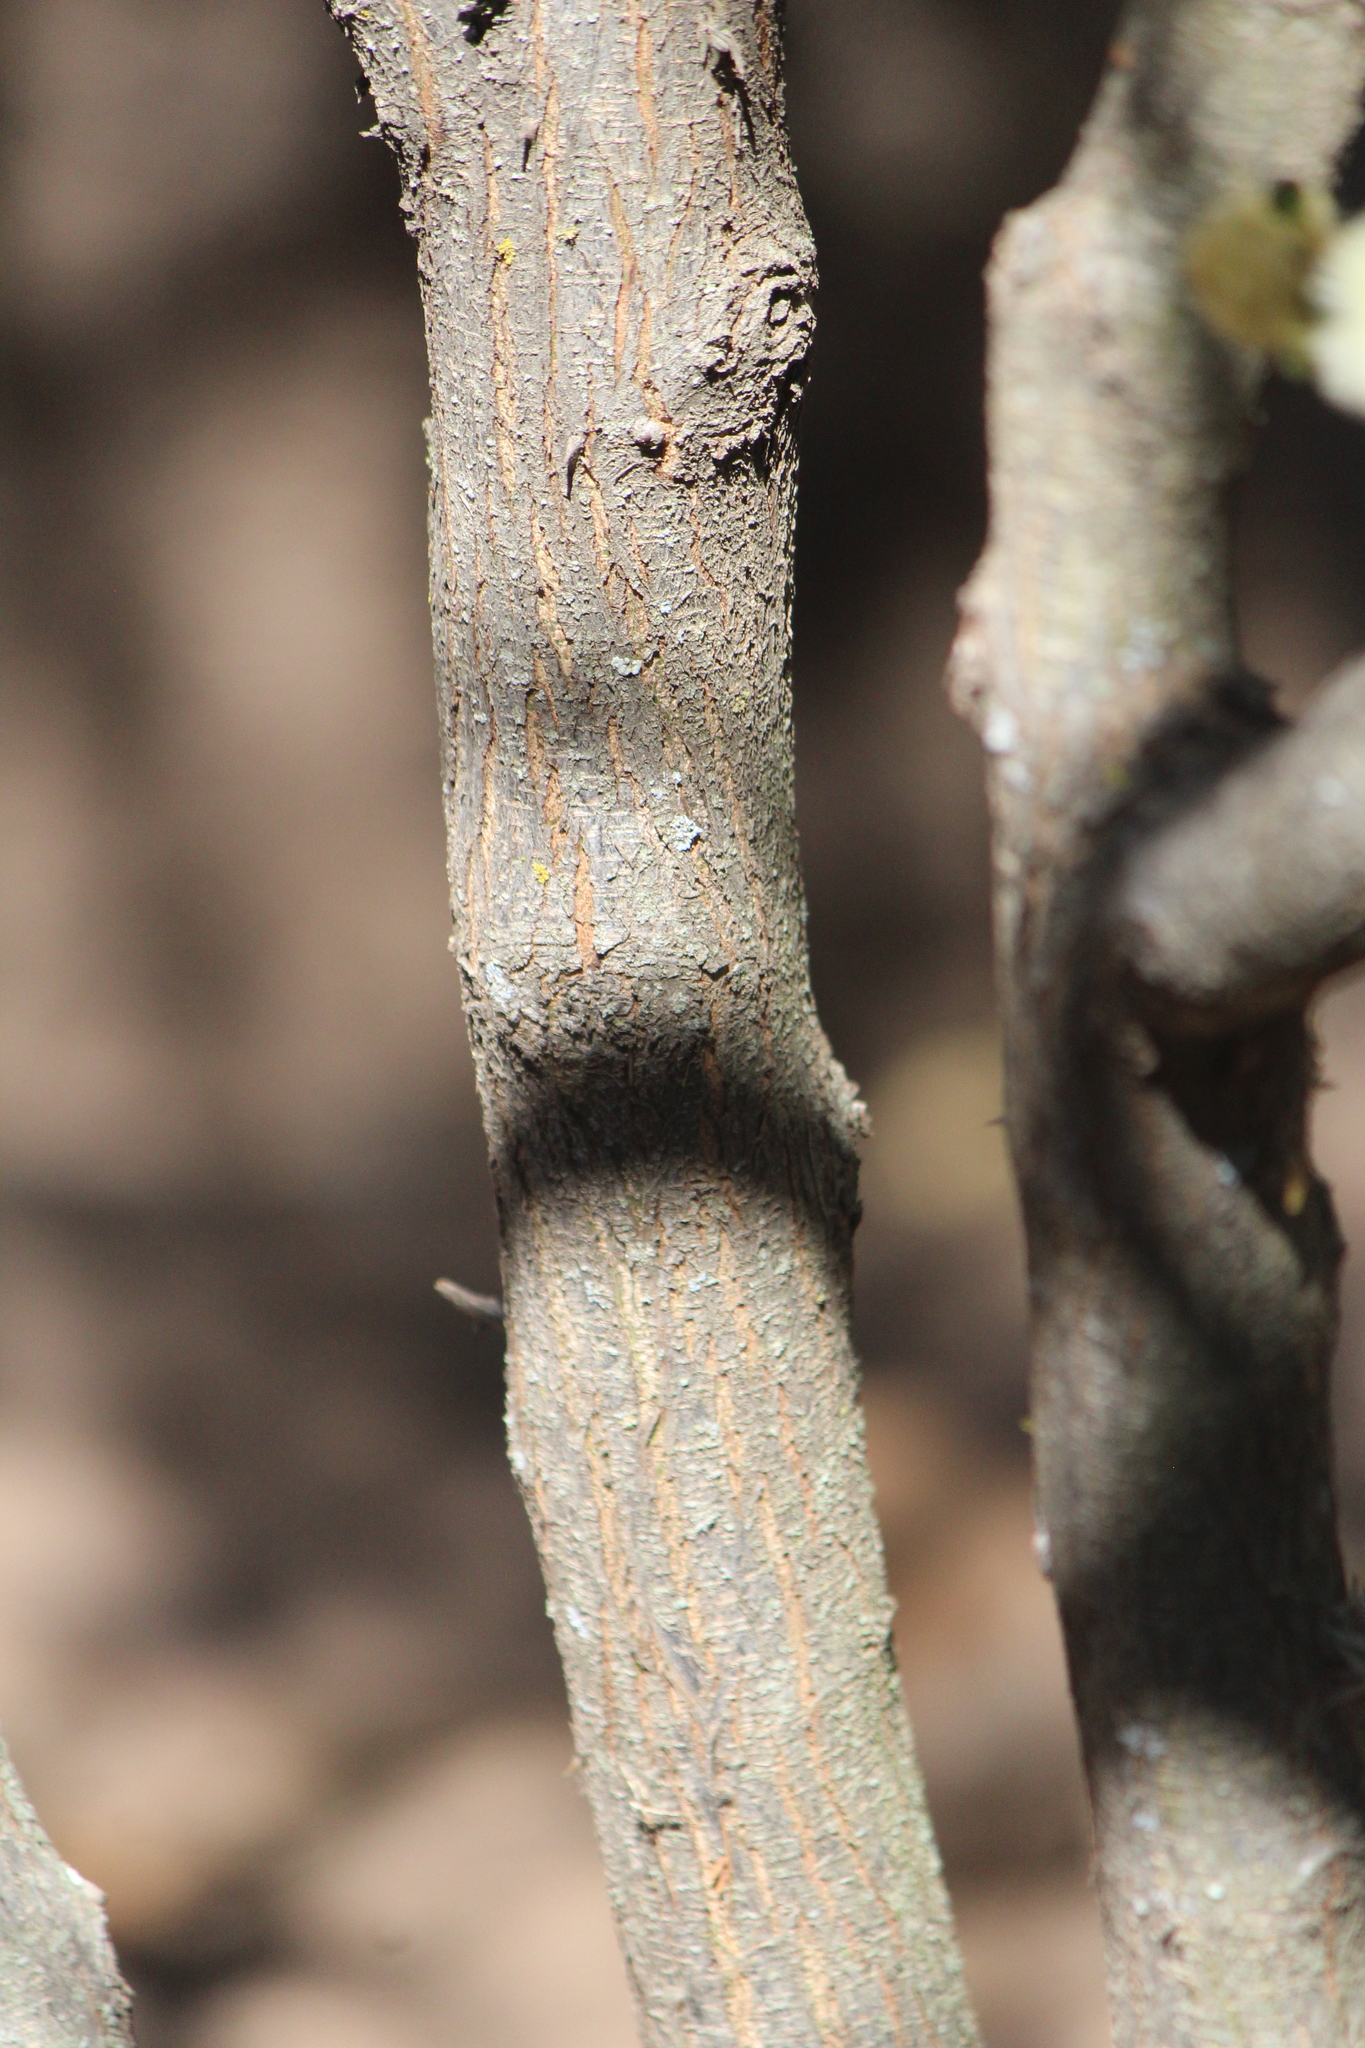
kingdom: Plantae
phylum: Tracheophyta
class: Magnoliopsida
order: Fabales
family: Fabaceae
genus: Acaciella
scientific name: Acaciella angustissima
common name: Prairie acacia
